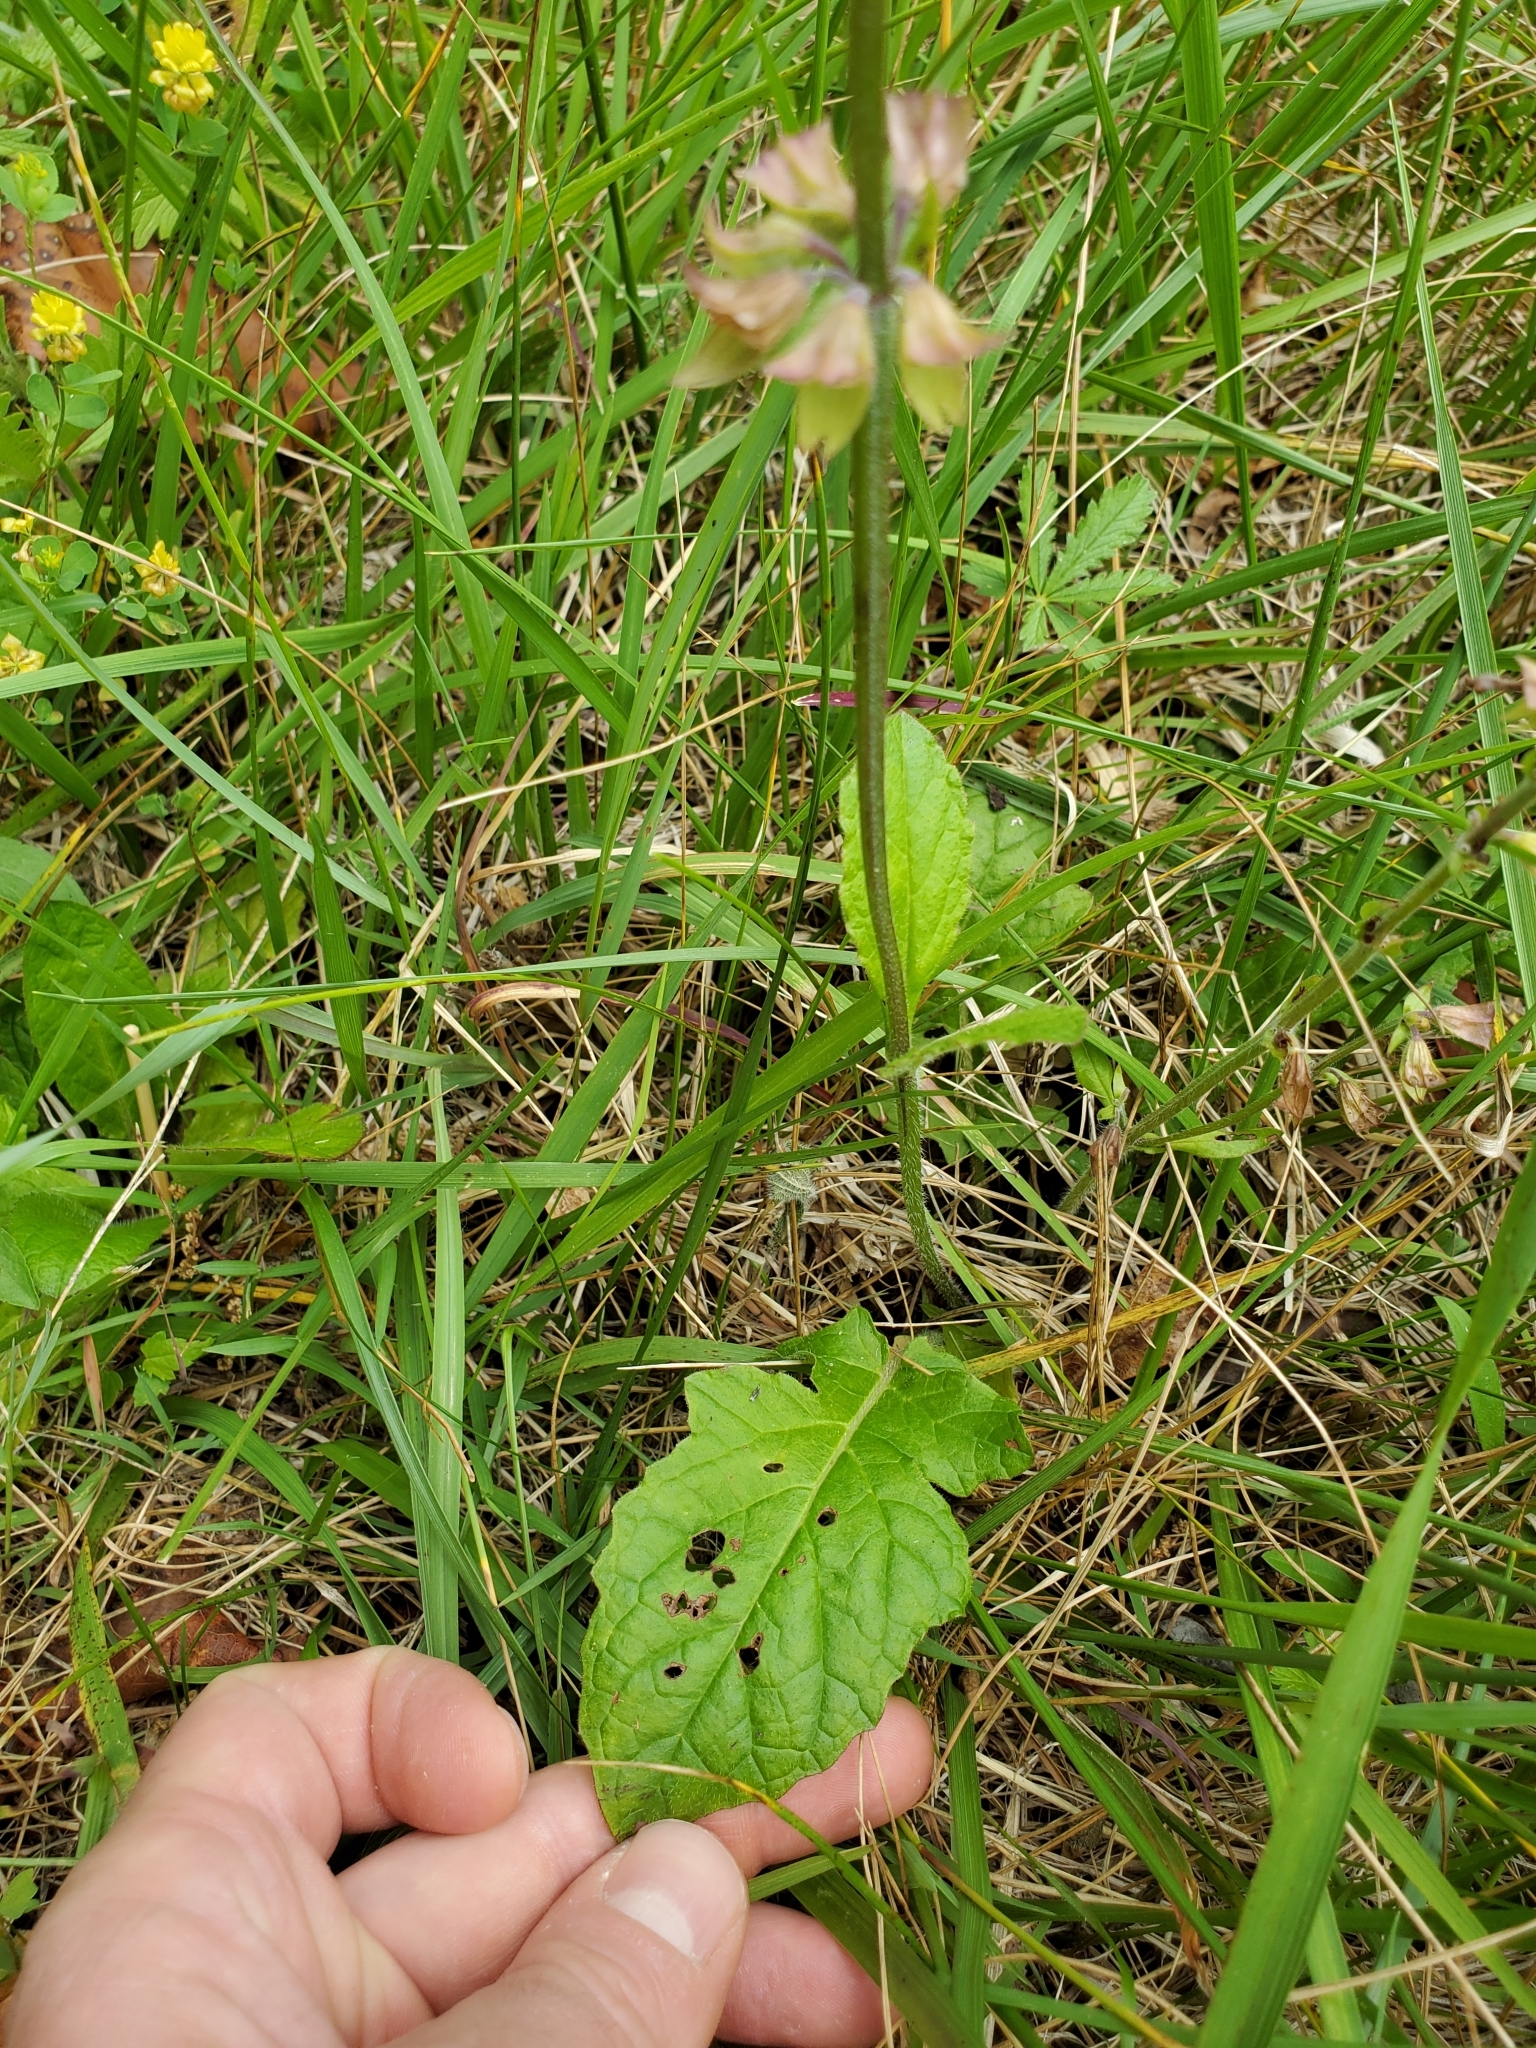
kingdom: Plantae
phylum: Tracheophyta
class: Magnoliopsida
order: Lamiales
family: Lamiaceae
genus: Salvia
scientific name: Salvia lyrata
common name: Cancerweed
